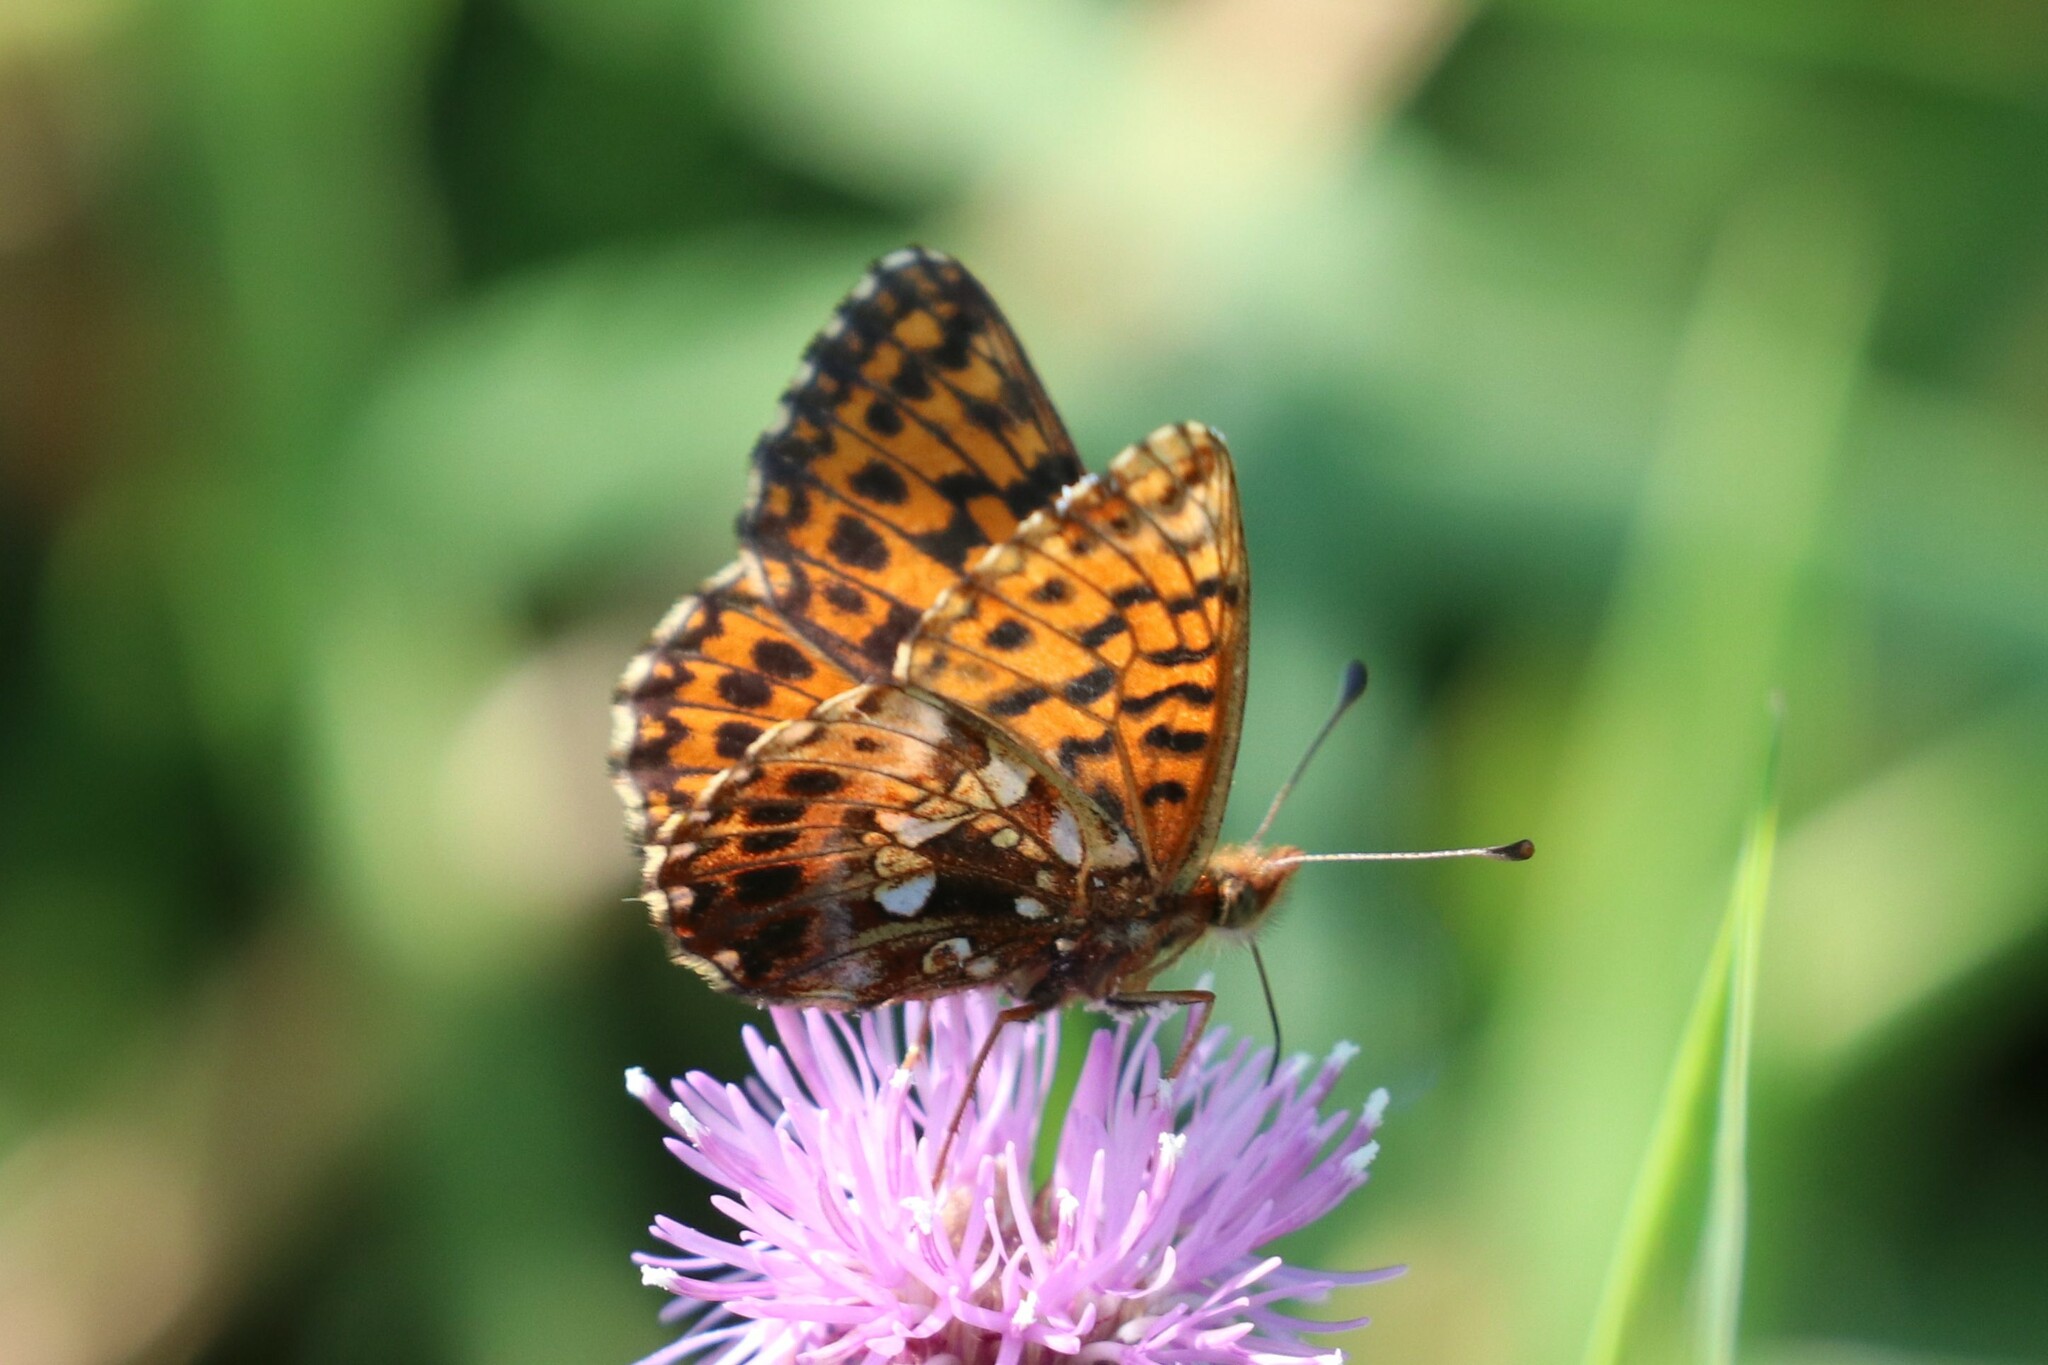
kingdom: Animalia
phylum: Arthropoda
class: Insecta
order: Lepidoptera
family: Nymphalidae
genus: Boloria
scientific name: Boloria dia
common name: Weaver's fritillary
